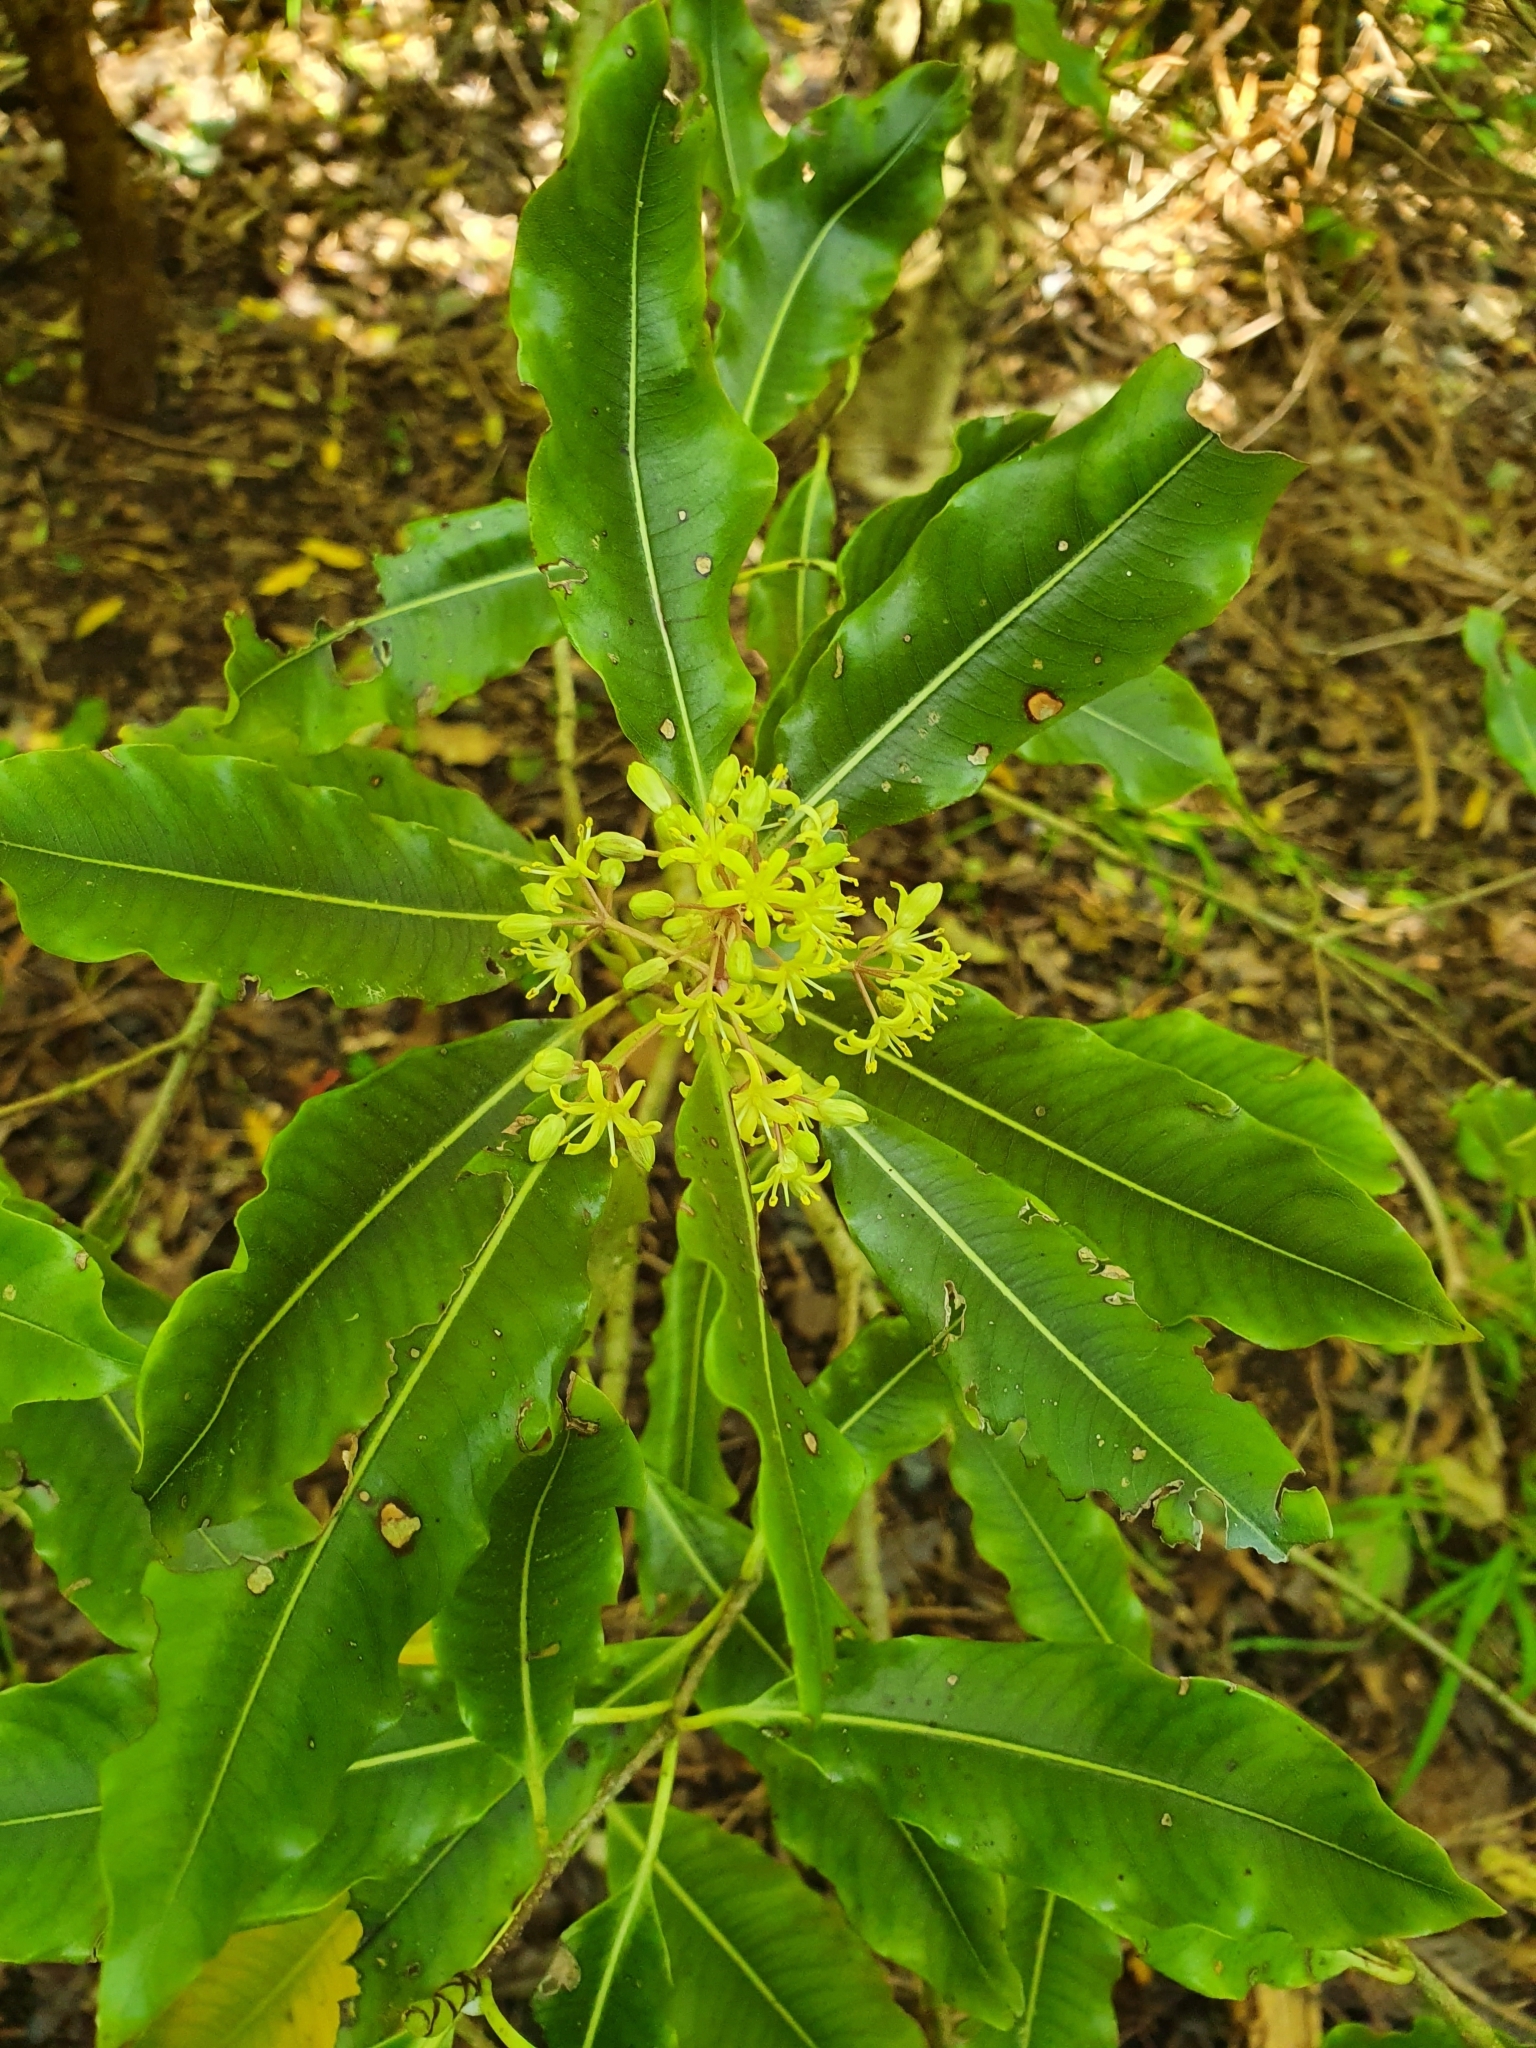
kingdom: Plantae
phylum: Tracheophyta
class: Magnoliopsida
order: Apiales
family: Pittosporaceae
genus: Pittosporum
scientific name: Pittosporum eugenioides
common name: Lemonwood
